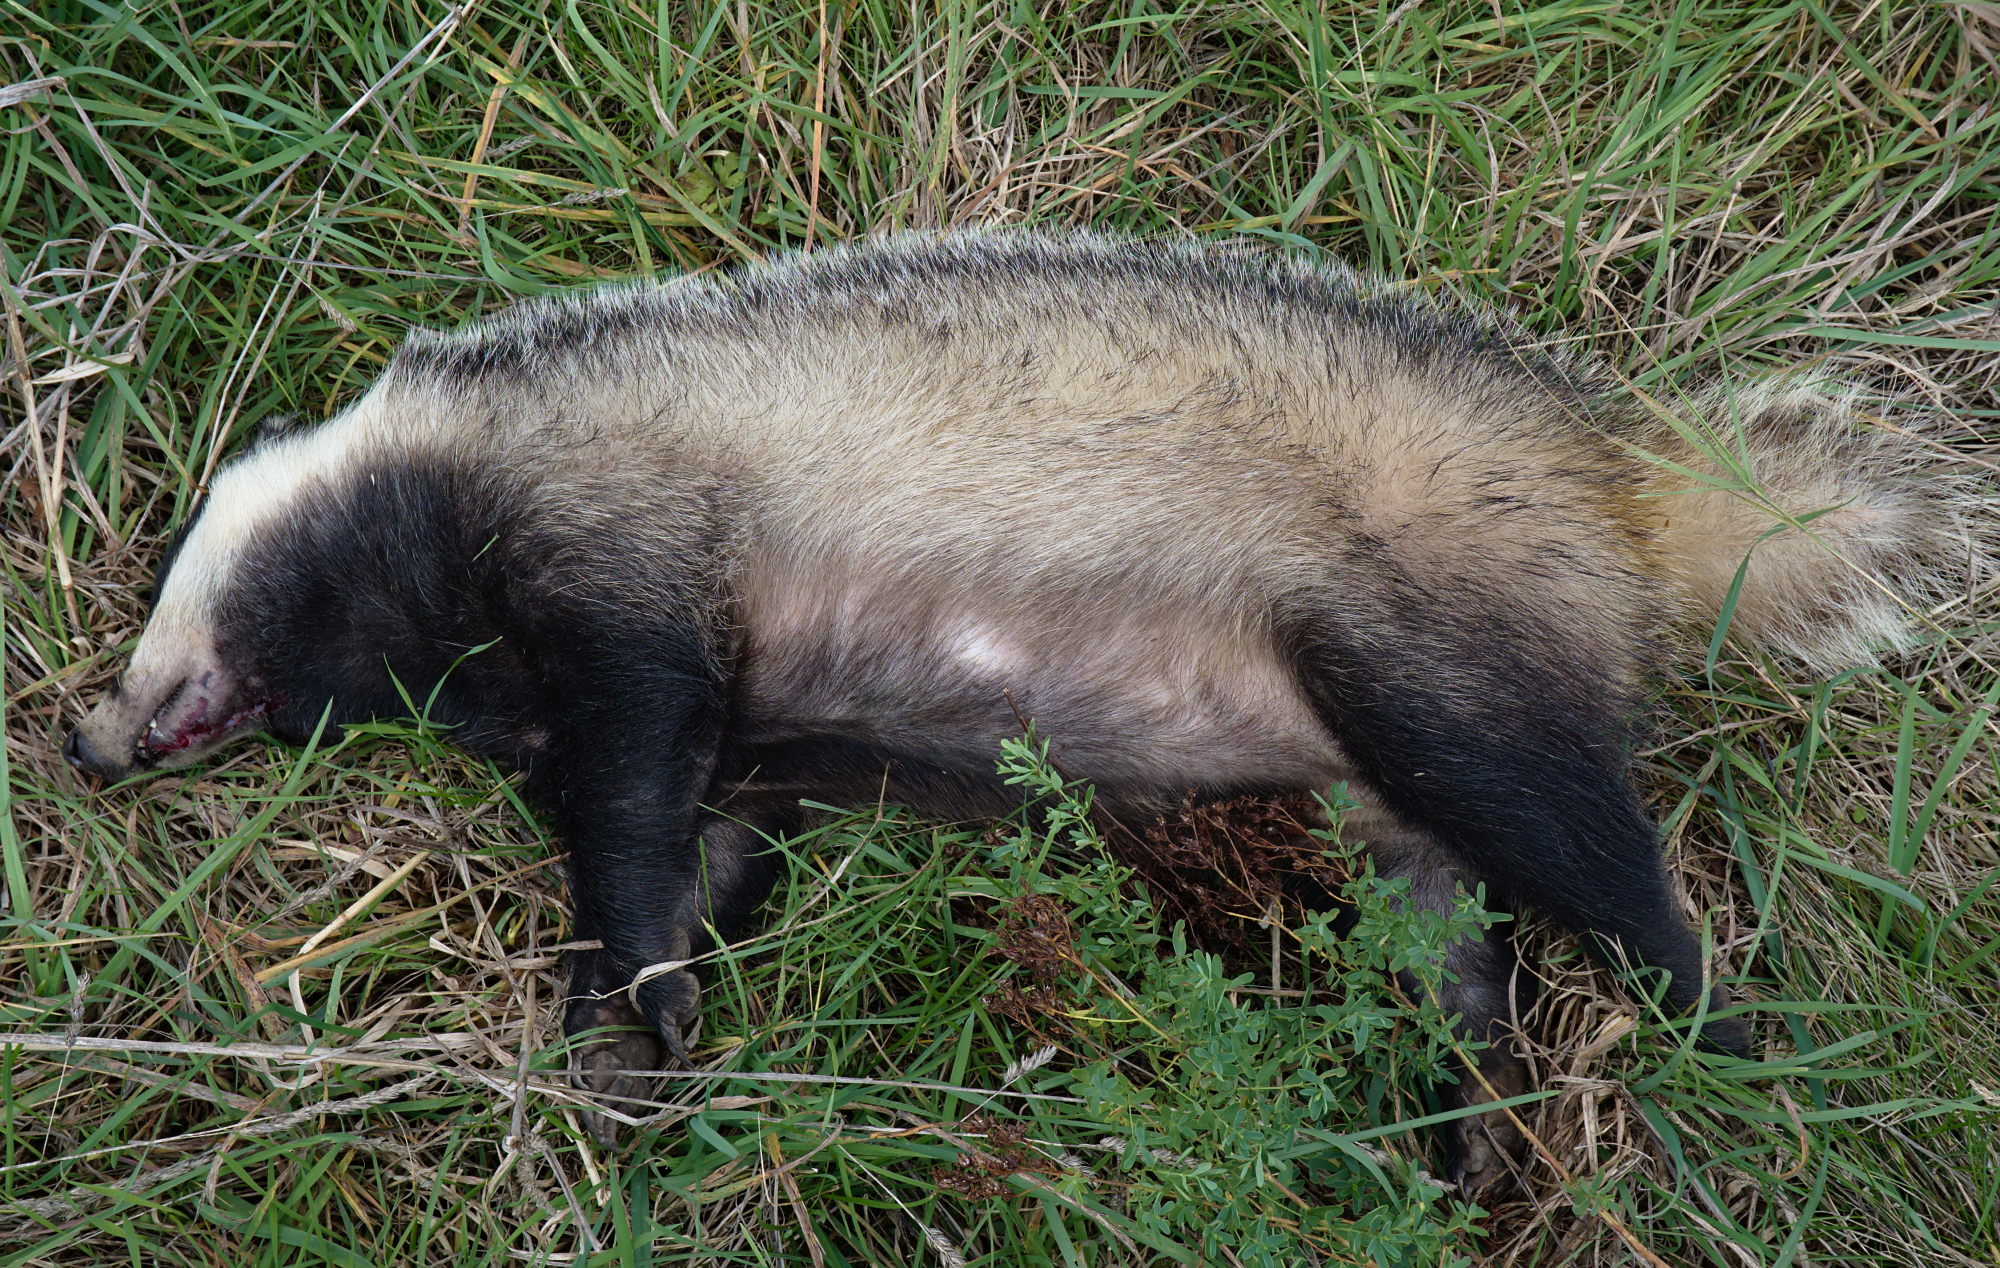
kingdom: Animalia
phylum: Chordata
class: Mammalia
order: Carnivora
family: Mustelidae
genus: Meles
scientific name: Meles meles
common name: Eurasian badger
